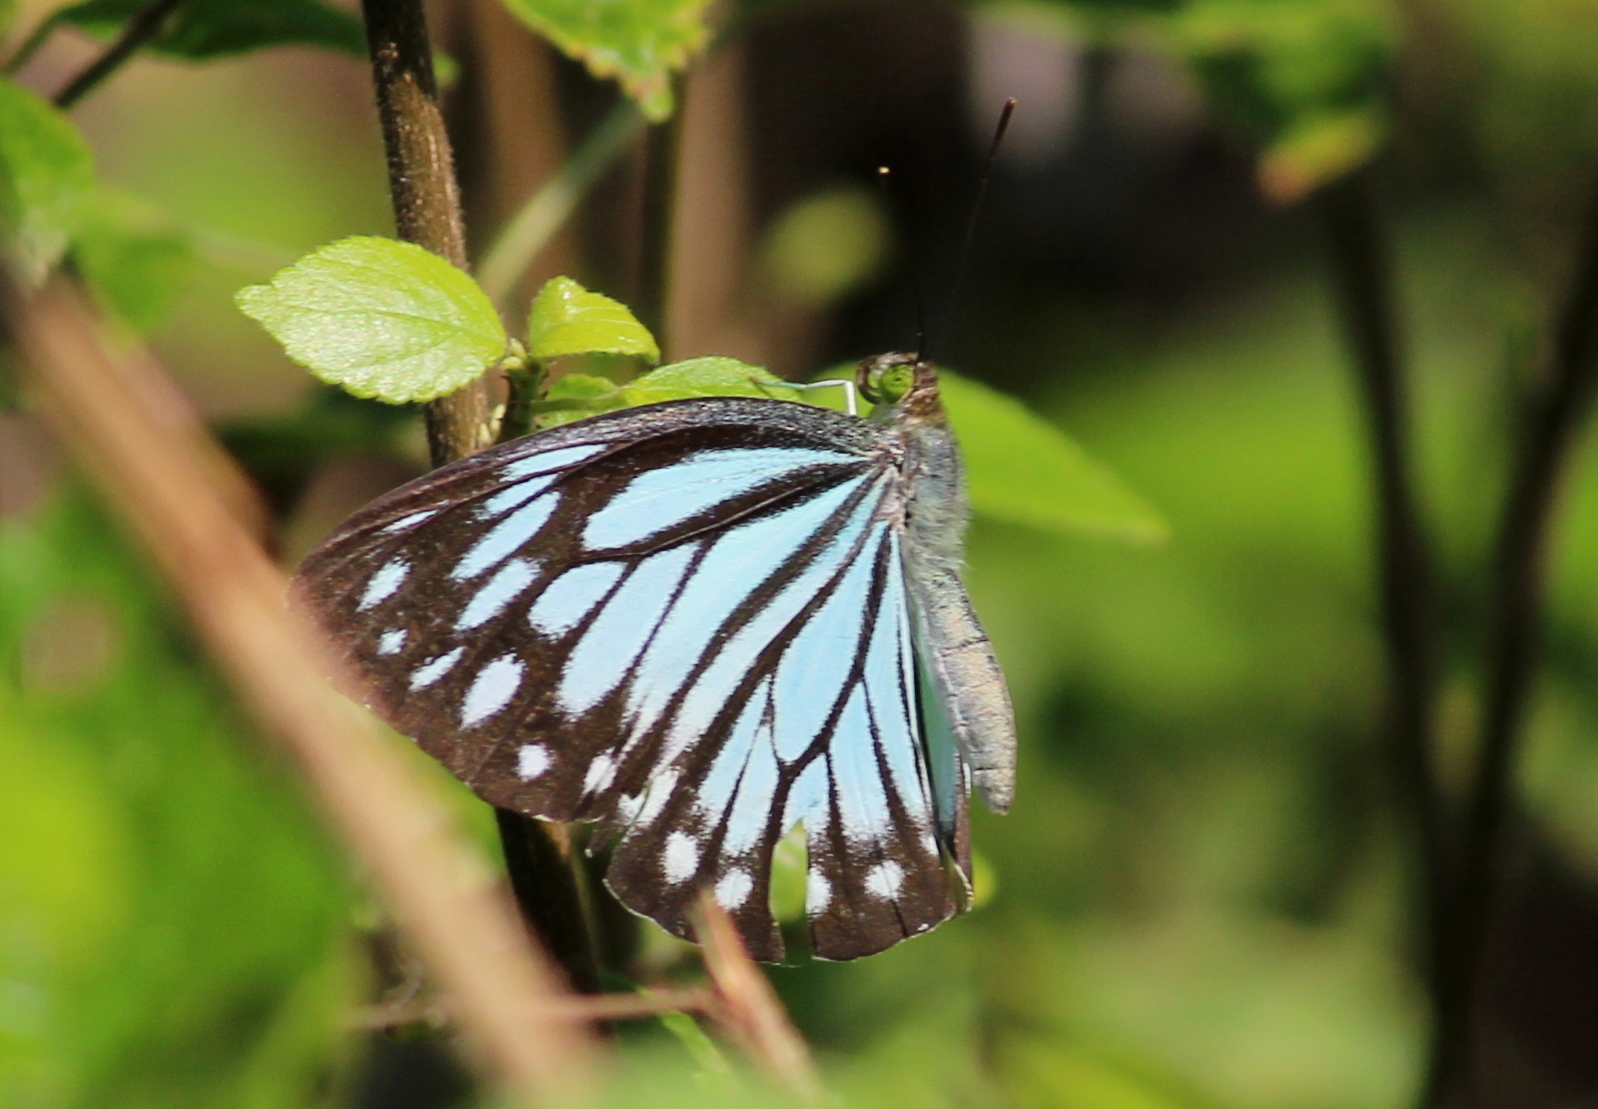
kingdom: Animalia
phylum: Arthropoda
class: Insecta
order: Lepidoptera
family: Pieridae
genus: Pareronia
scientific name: Pareronia hippia
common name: Indian wanderer
